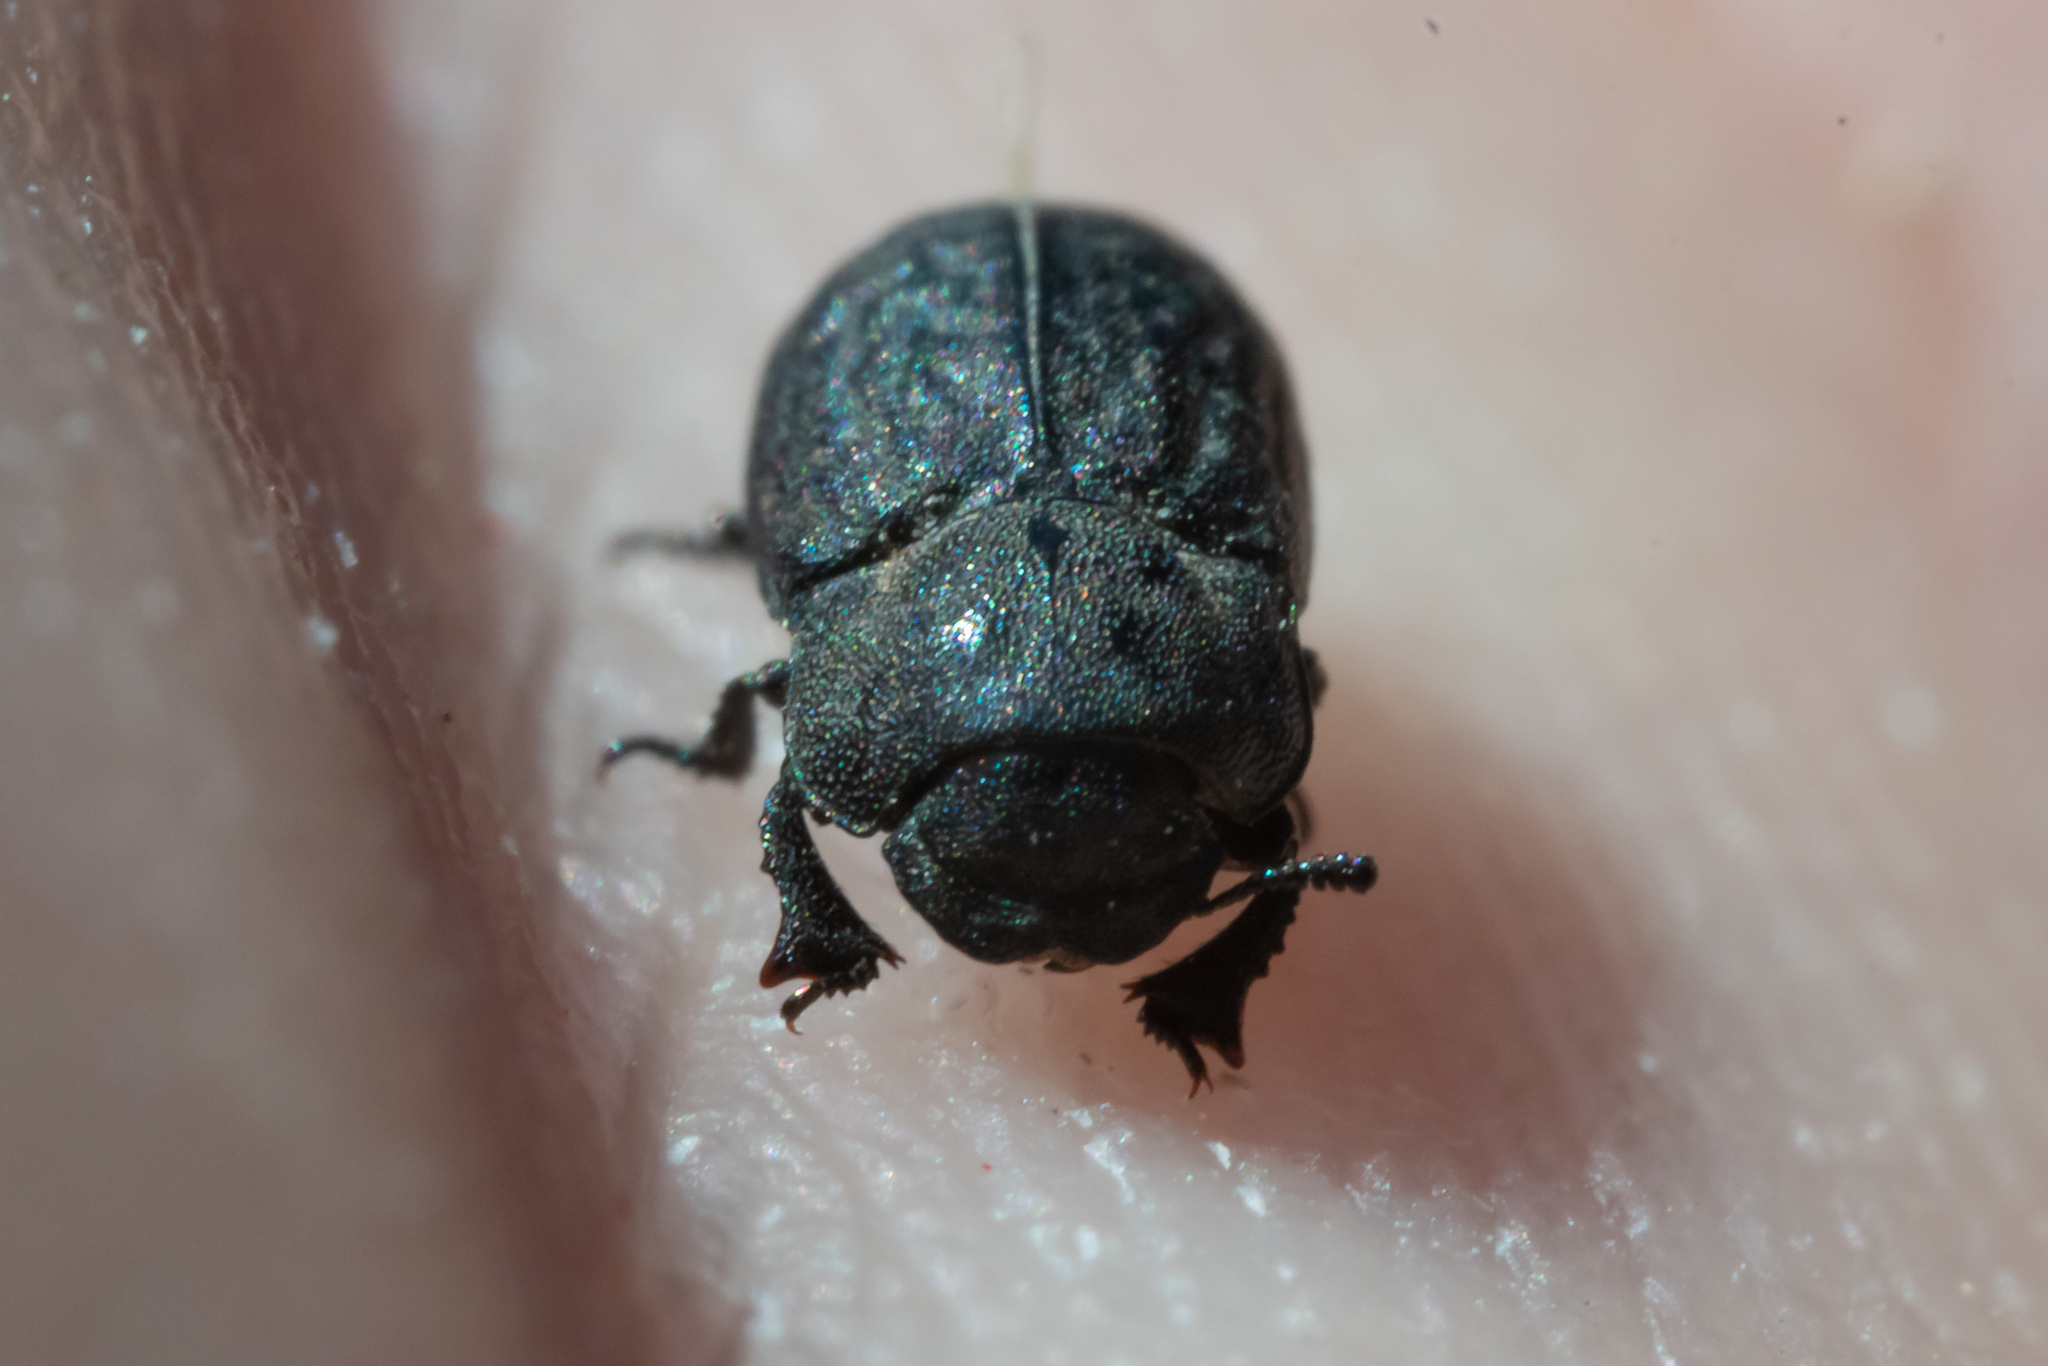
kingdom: Animalia
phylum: Arthropoda
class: Insecta
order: Coleoptera
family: Tenebrionidae
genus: Melanimon
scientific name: Melanimon tibialis
